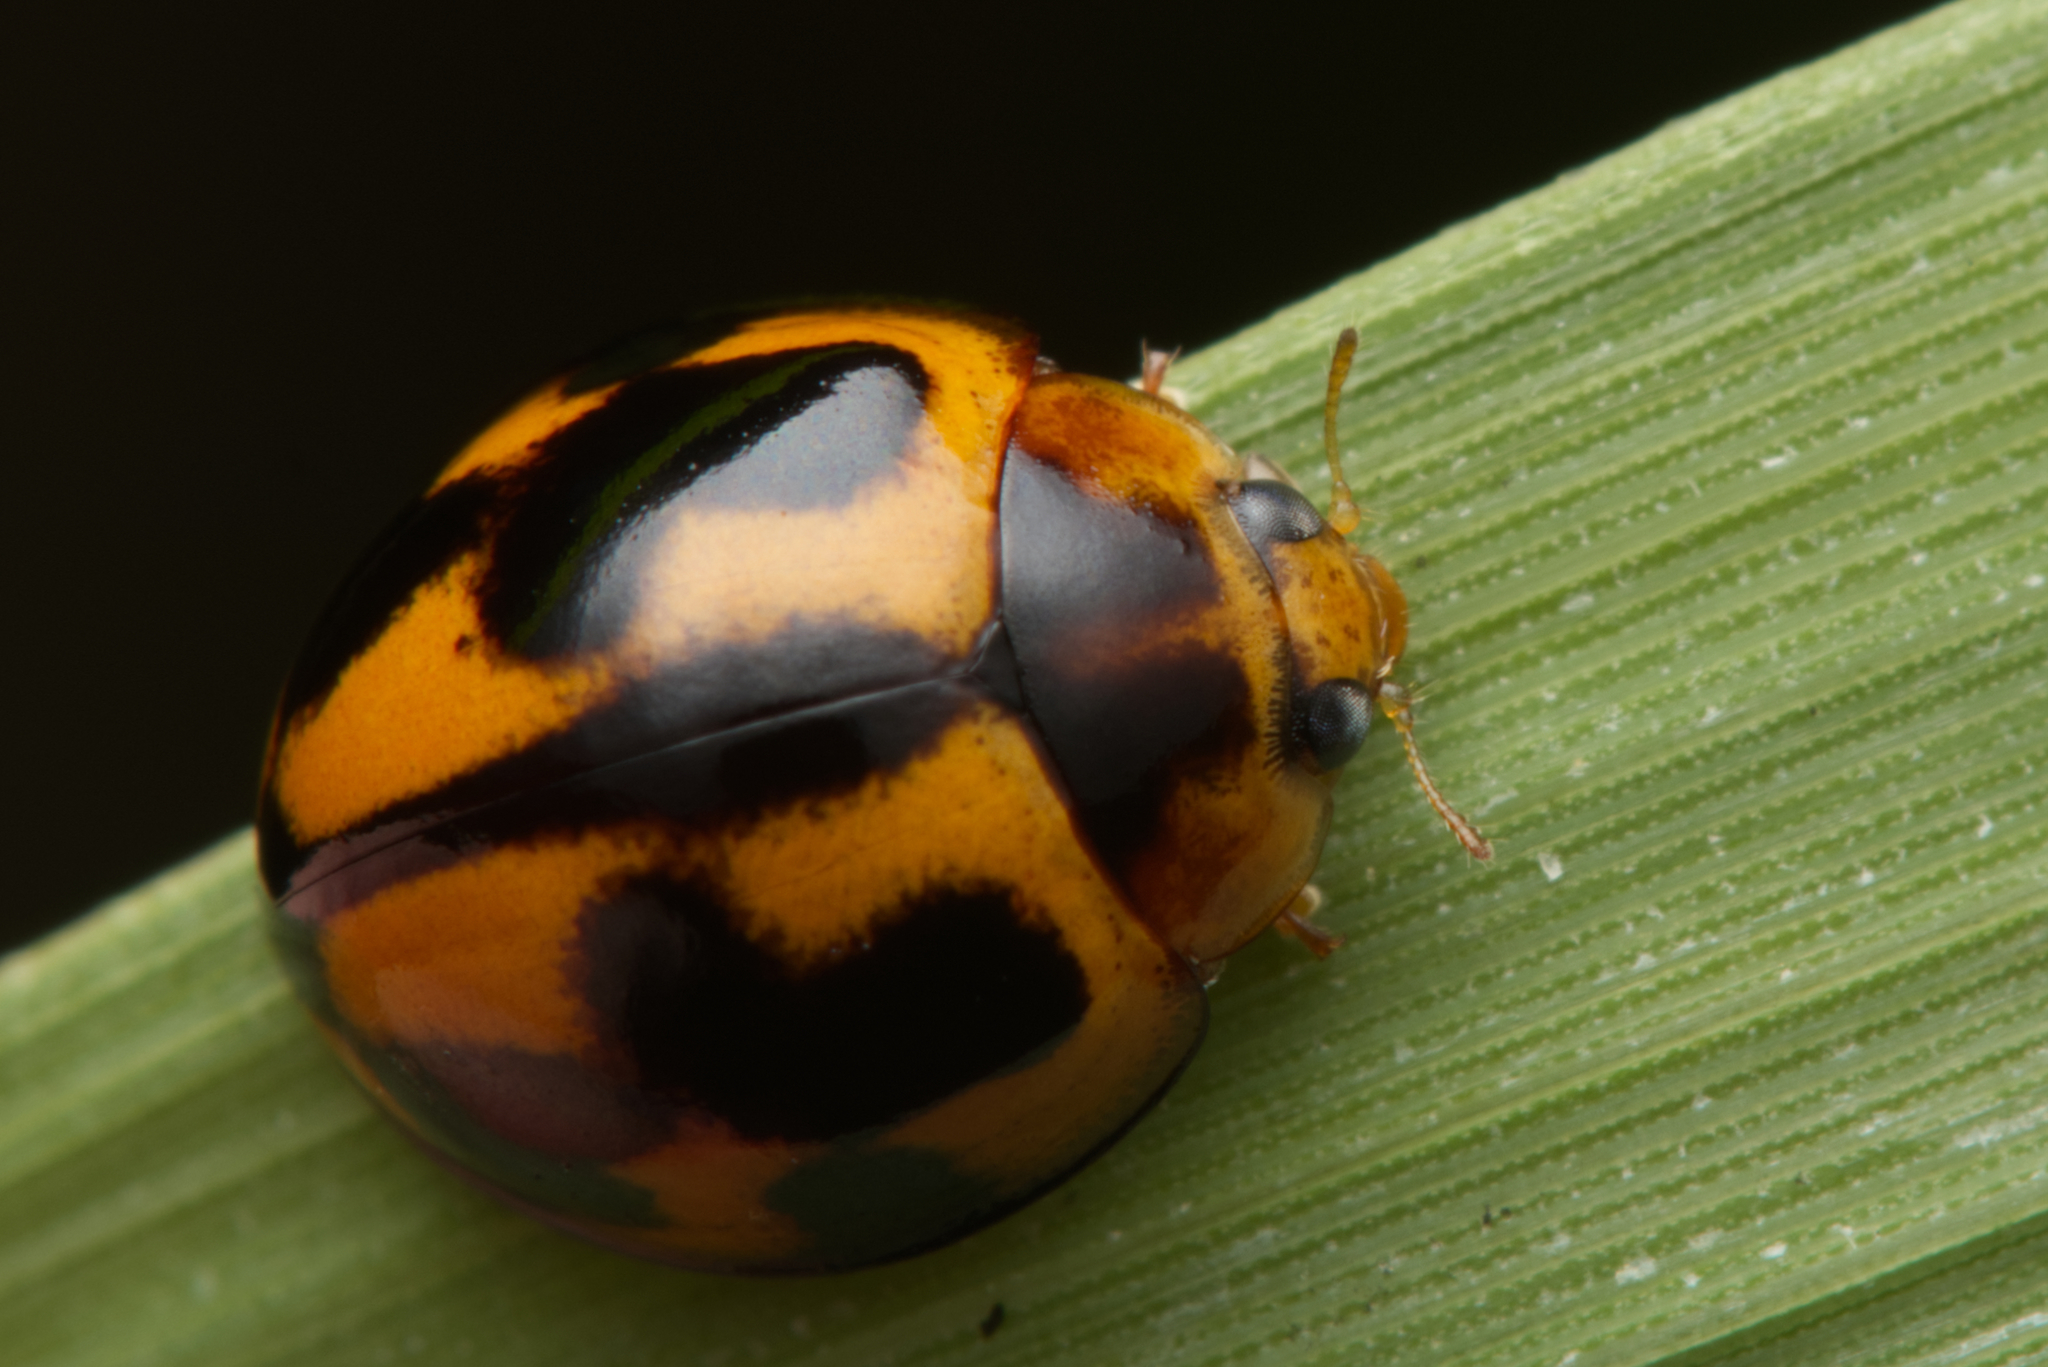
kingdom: Animalia
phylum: Arthropoda
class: Insecta
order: Coleoptera
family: Coccinellidae
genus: Coelophora
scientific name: Coelophora inaequalis
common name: Common australian lady beetle
